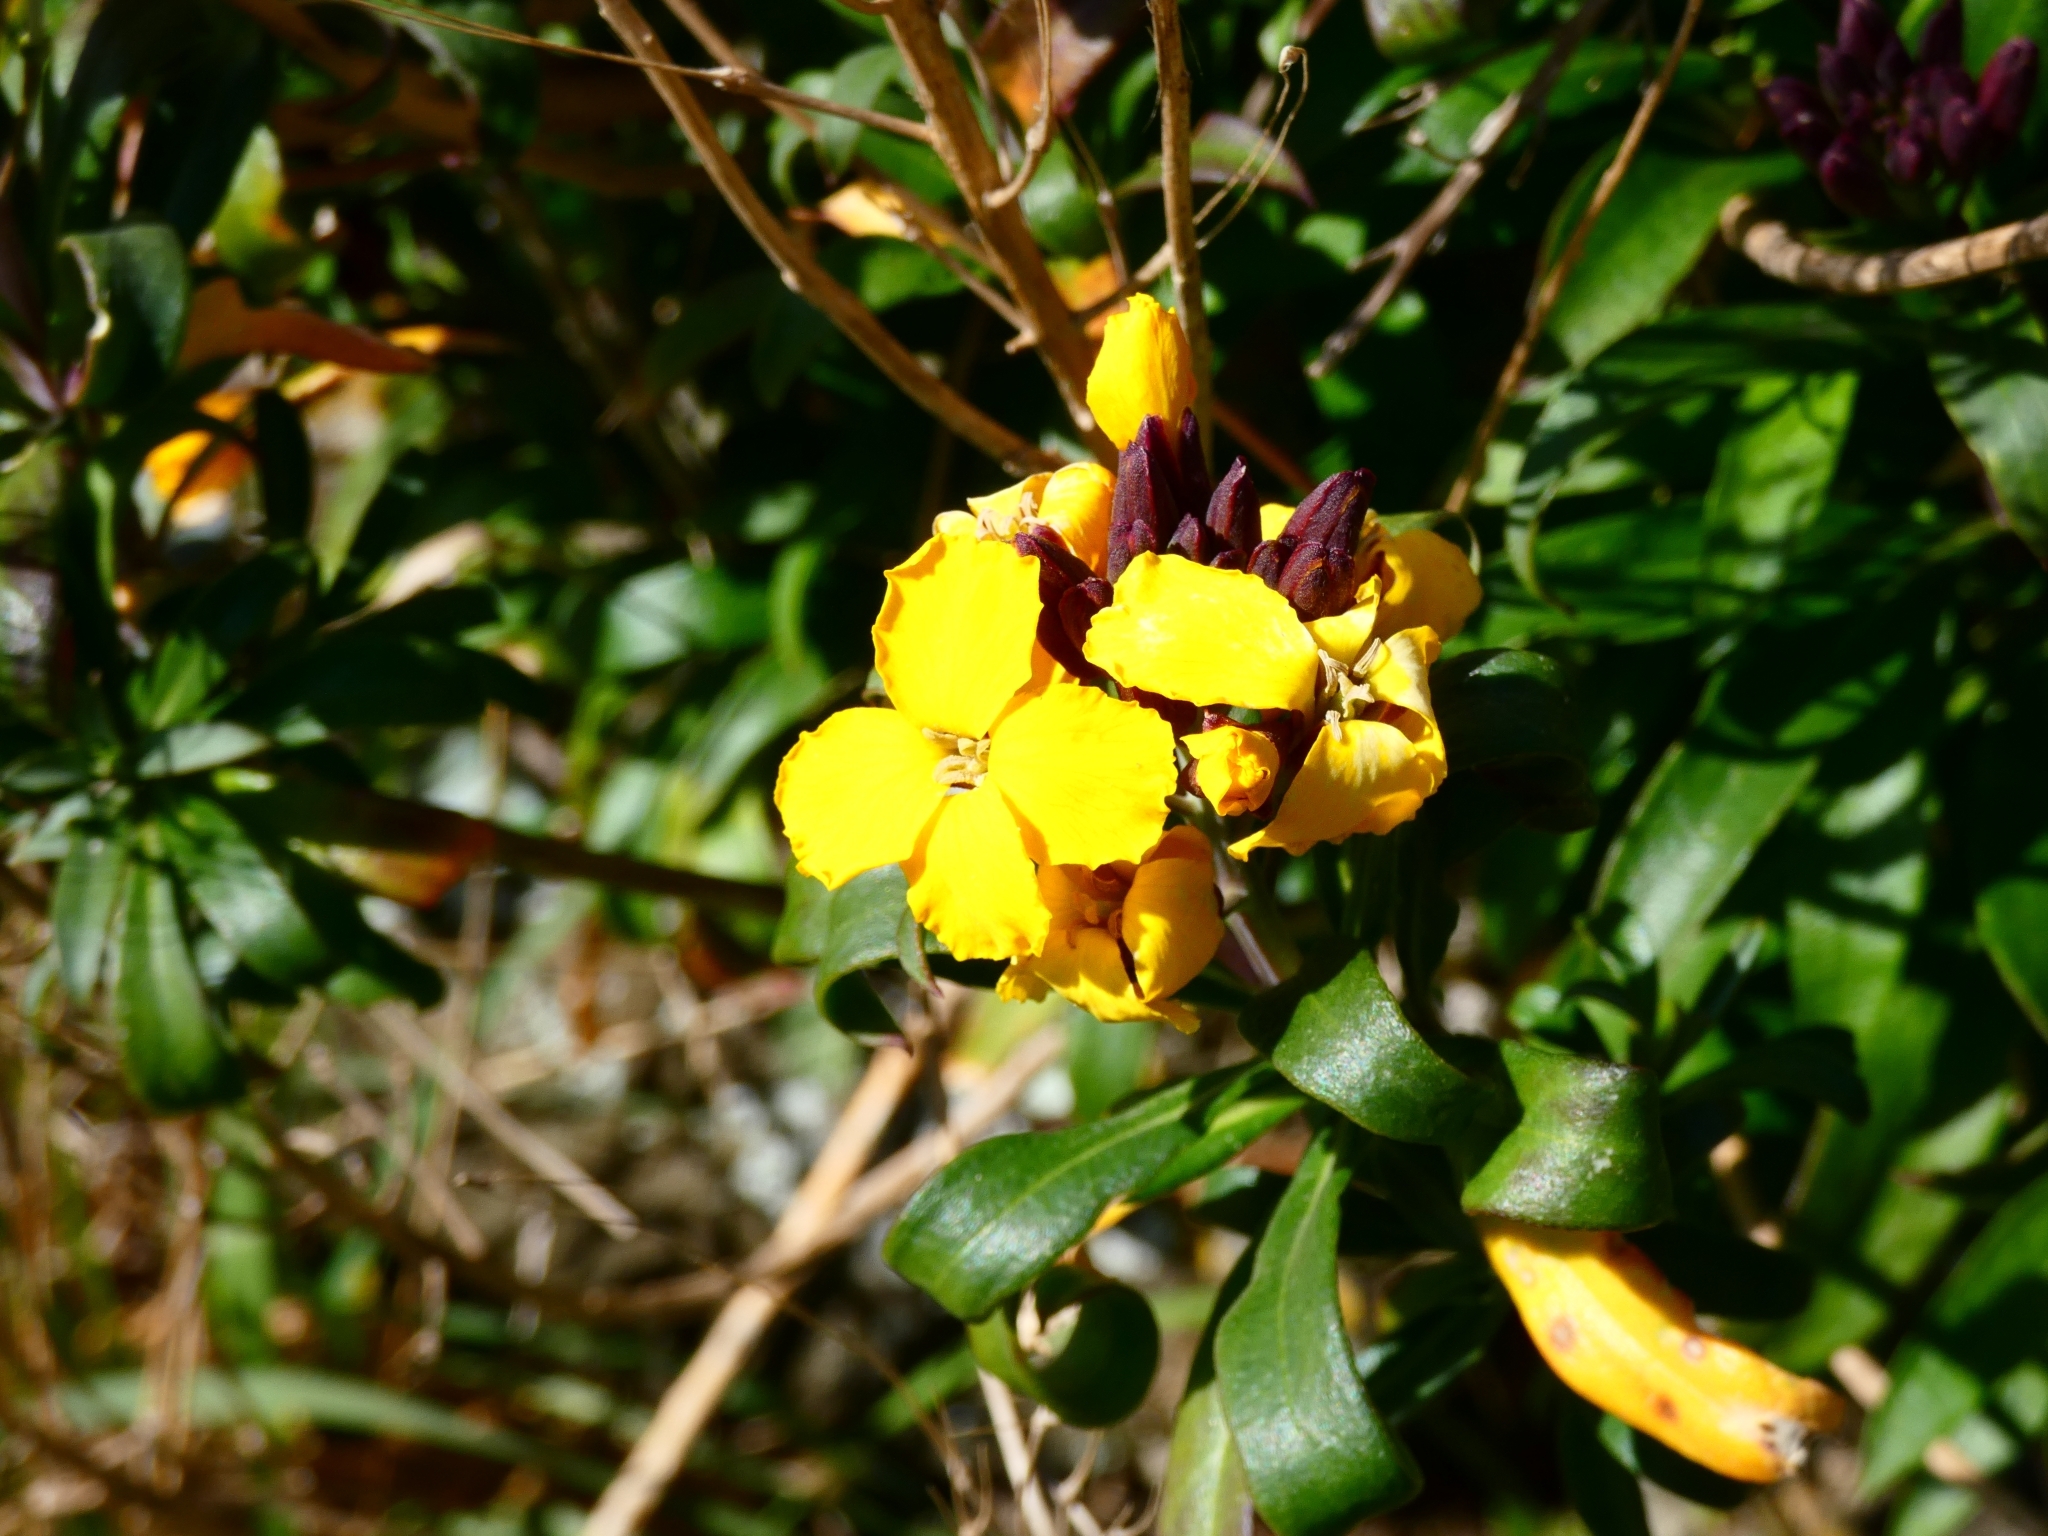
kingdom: Plantae
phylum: Tracheophyta
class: Magnoliopsida
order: Brassicales
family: Brassicaceae
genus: Erysimum
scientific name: Erysimum cheiri
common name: Wallflower
